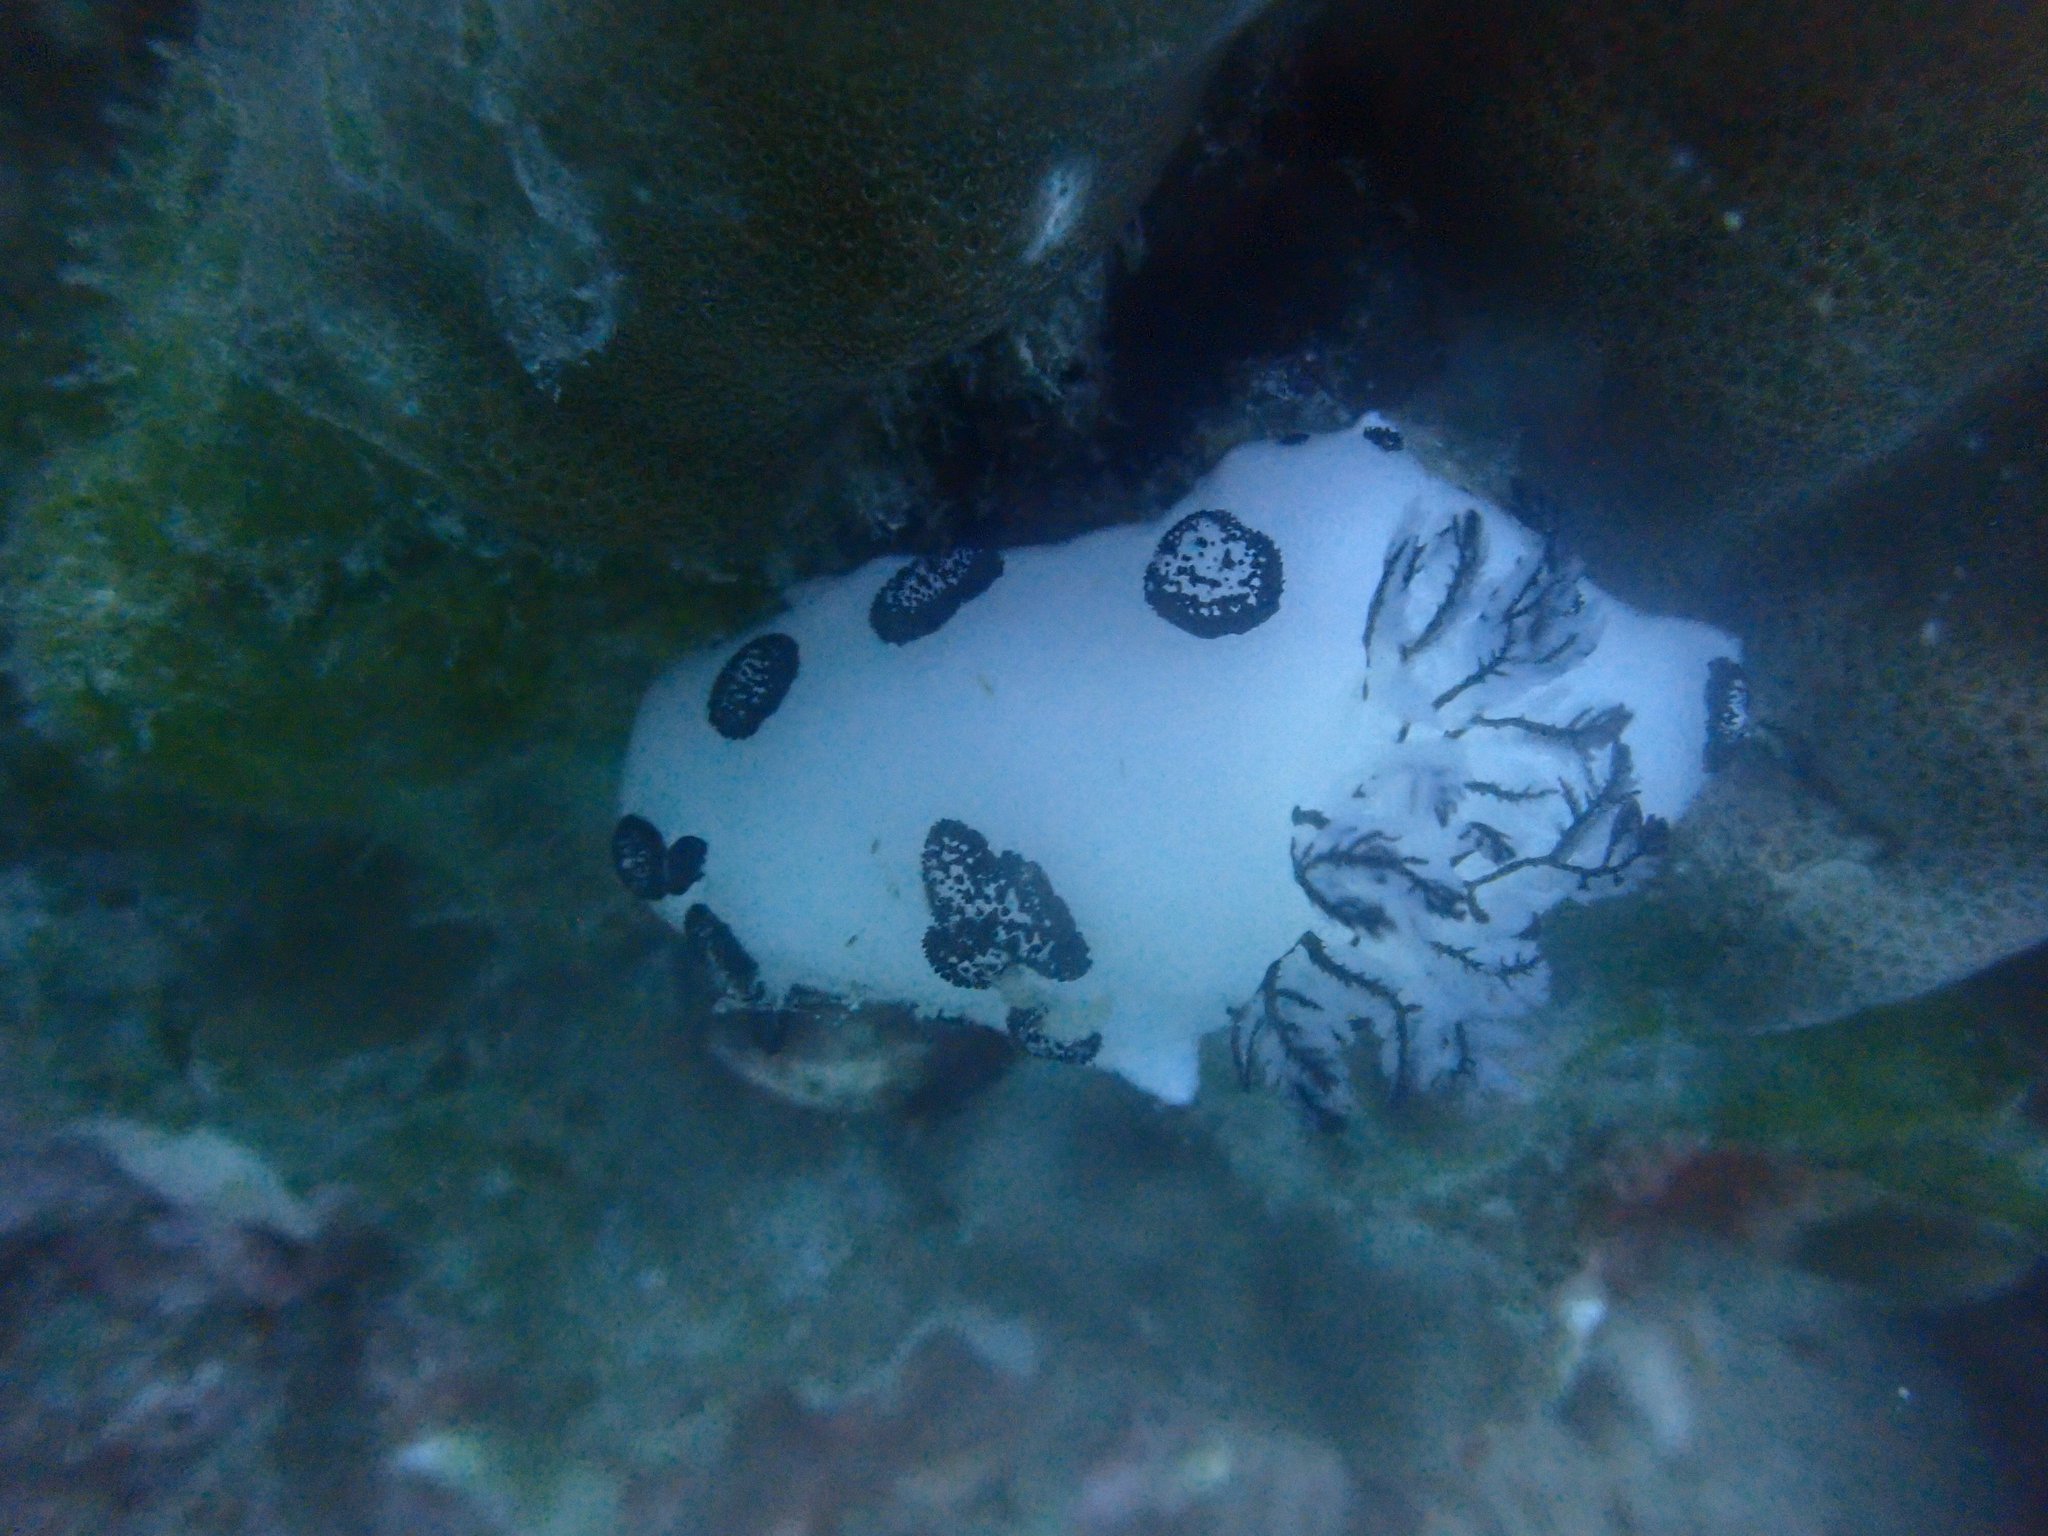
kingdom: Animalia
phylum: Mollusca
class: Gastropoda
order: Nudibranchia
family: Discodorididae
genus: Jorunna
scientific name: Jorunna funebris
